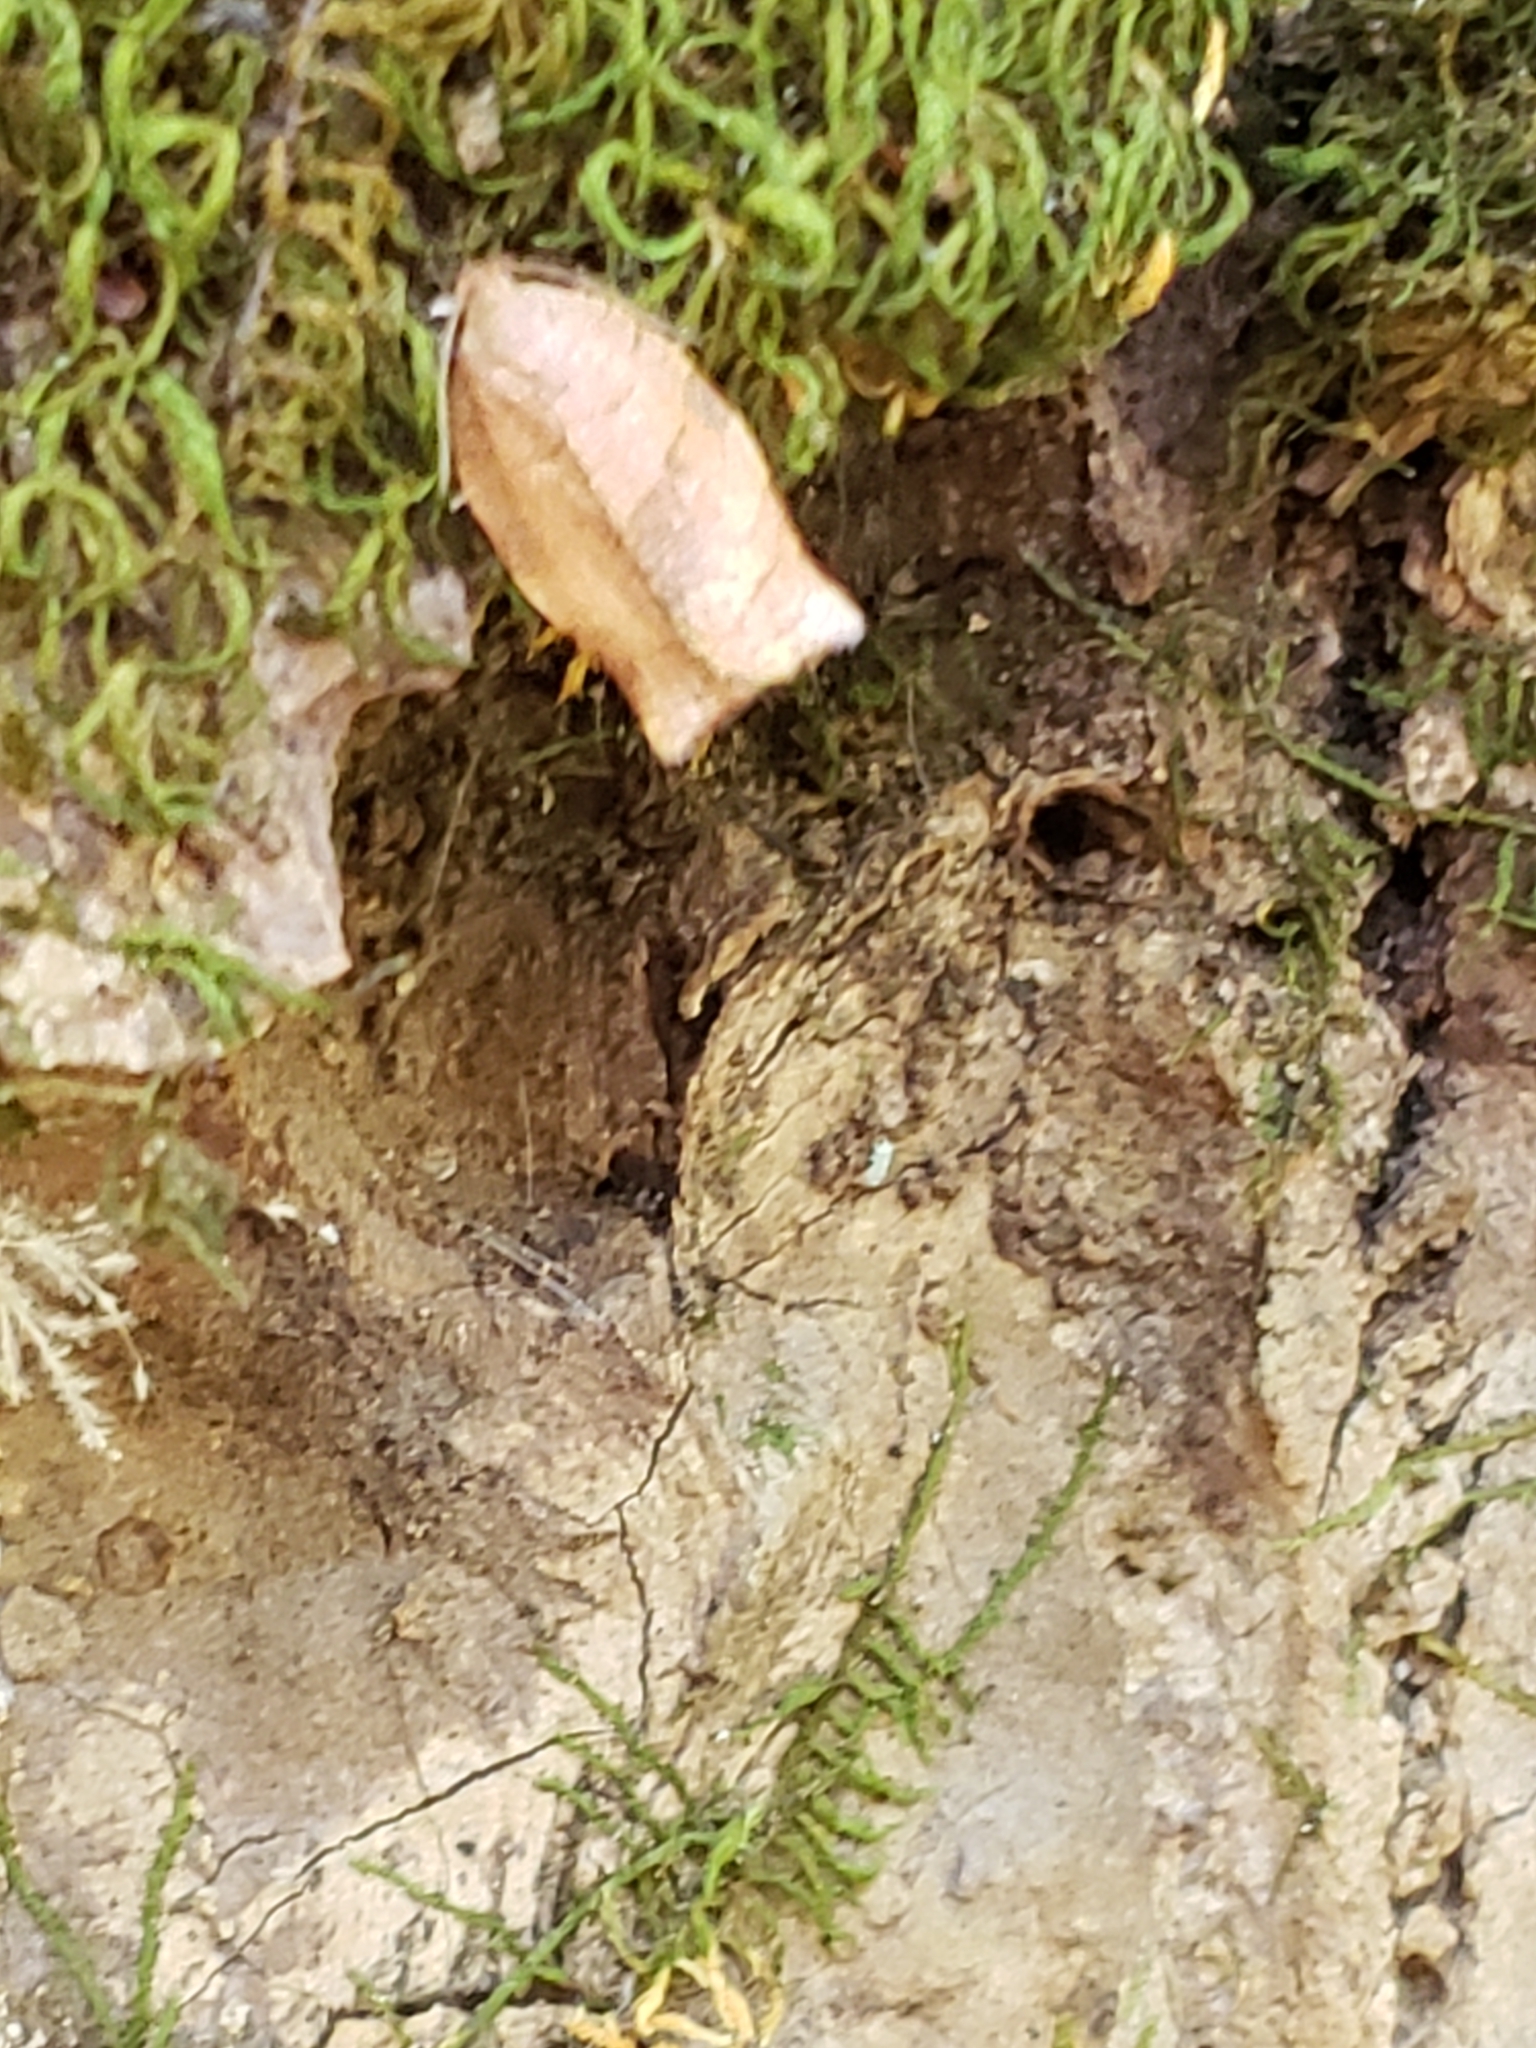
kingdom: Animalia
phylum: Arthropoda
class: Insecta
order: Lepidoptera
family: Tortricidae
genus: Choristoneura
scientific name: Choristoneura rosaceana
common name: Oblique-banded leafroller moth
